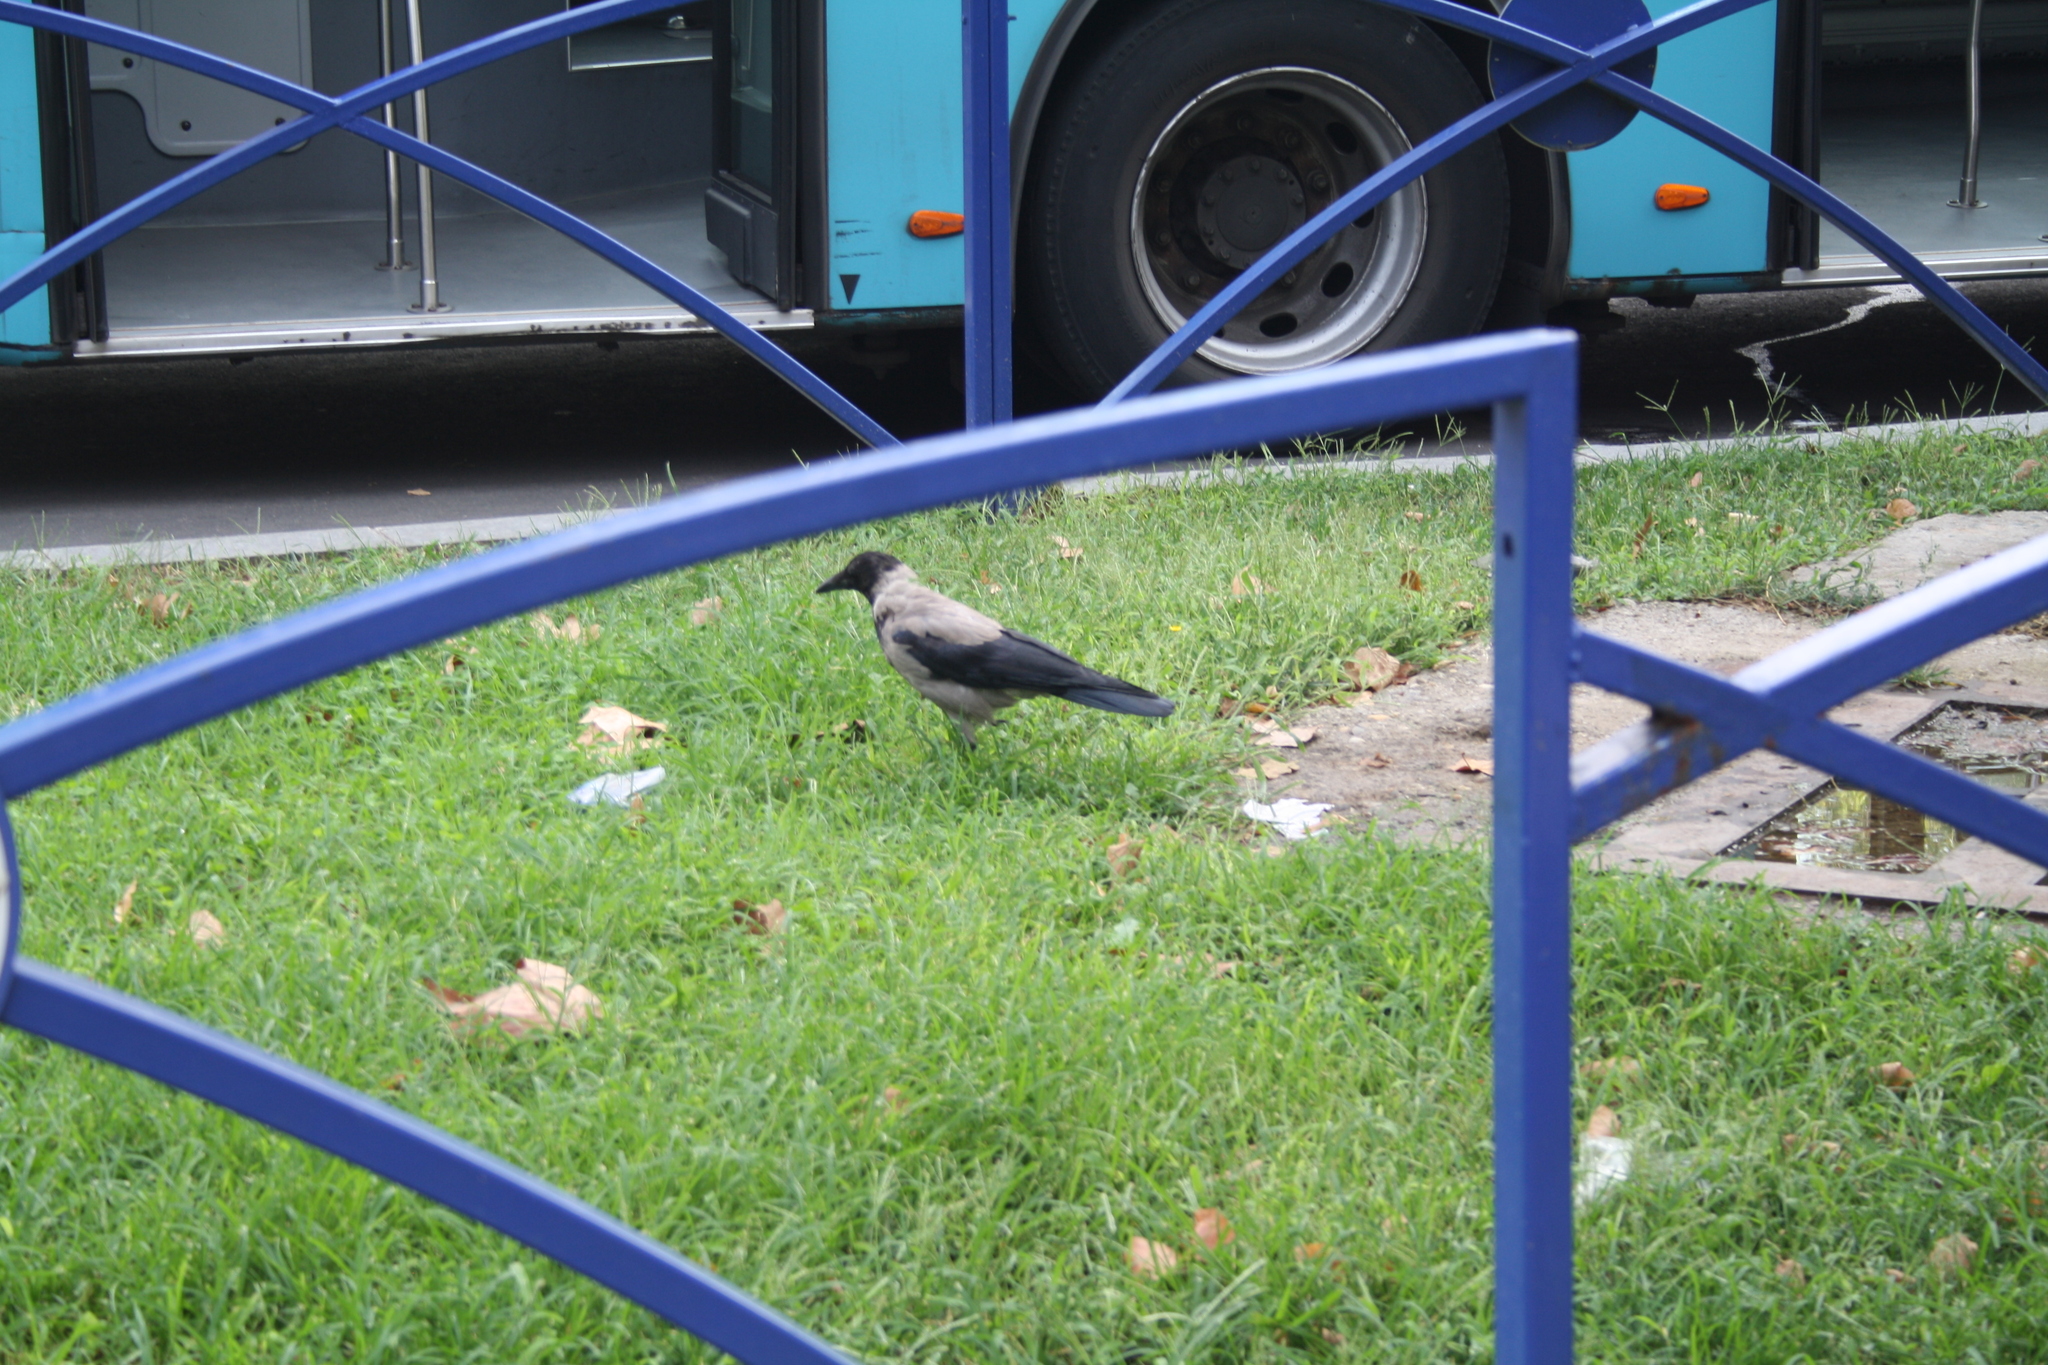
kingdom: Animalia
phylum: Chordata
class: Aves
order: Passeriformes
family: Corvidae
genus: Corvus
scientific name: Corvus cornix
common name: Hooded crow
